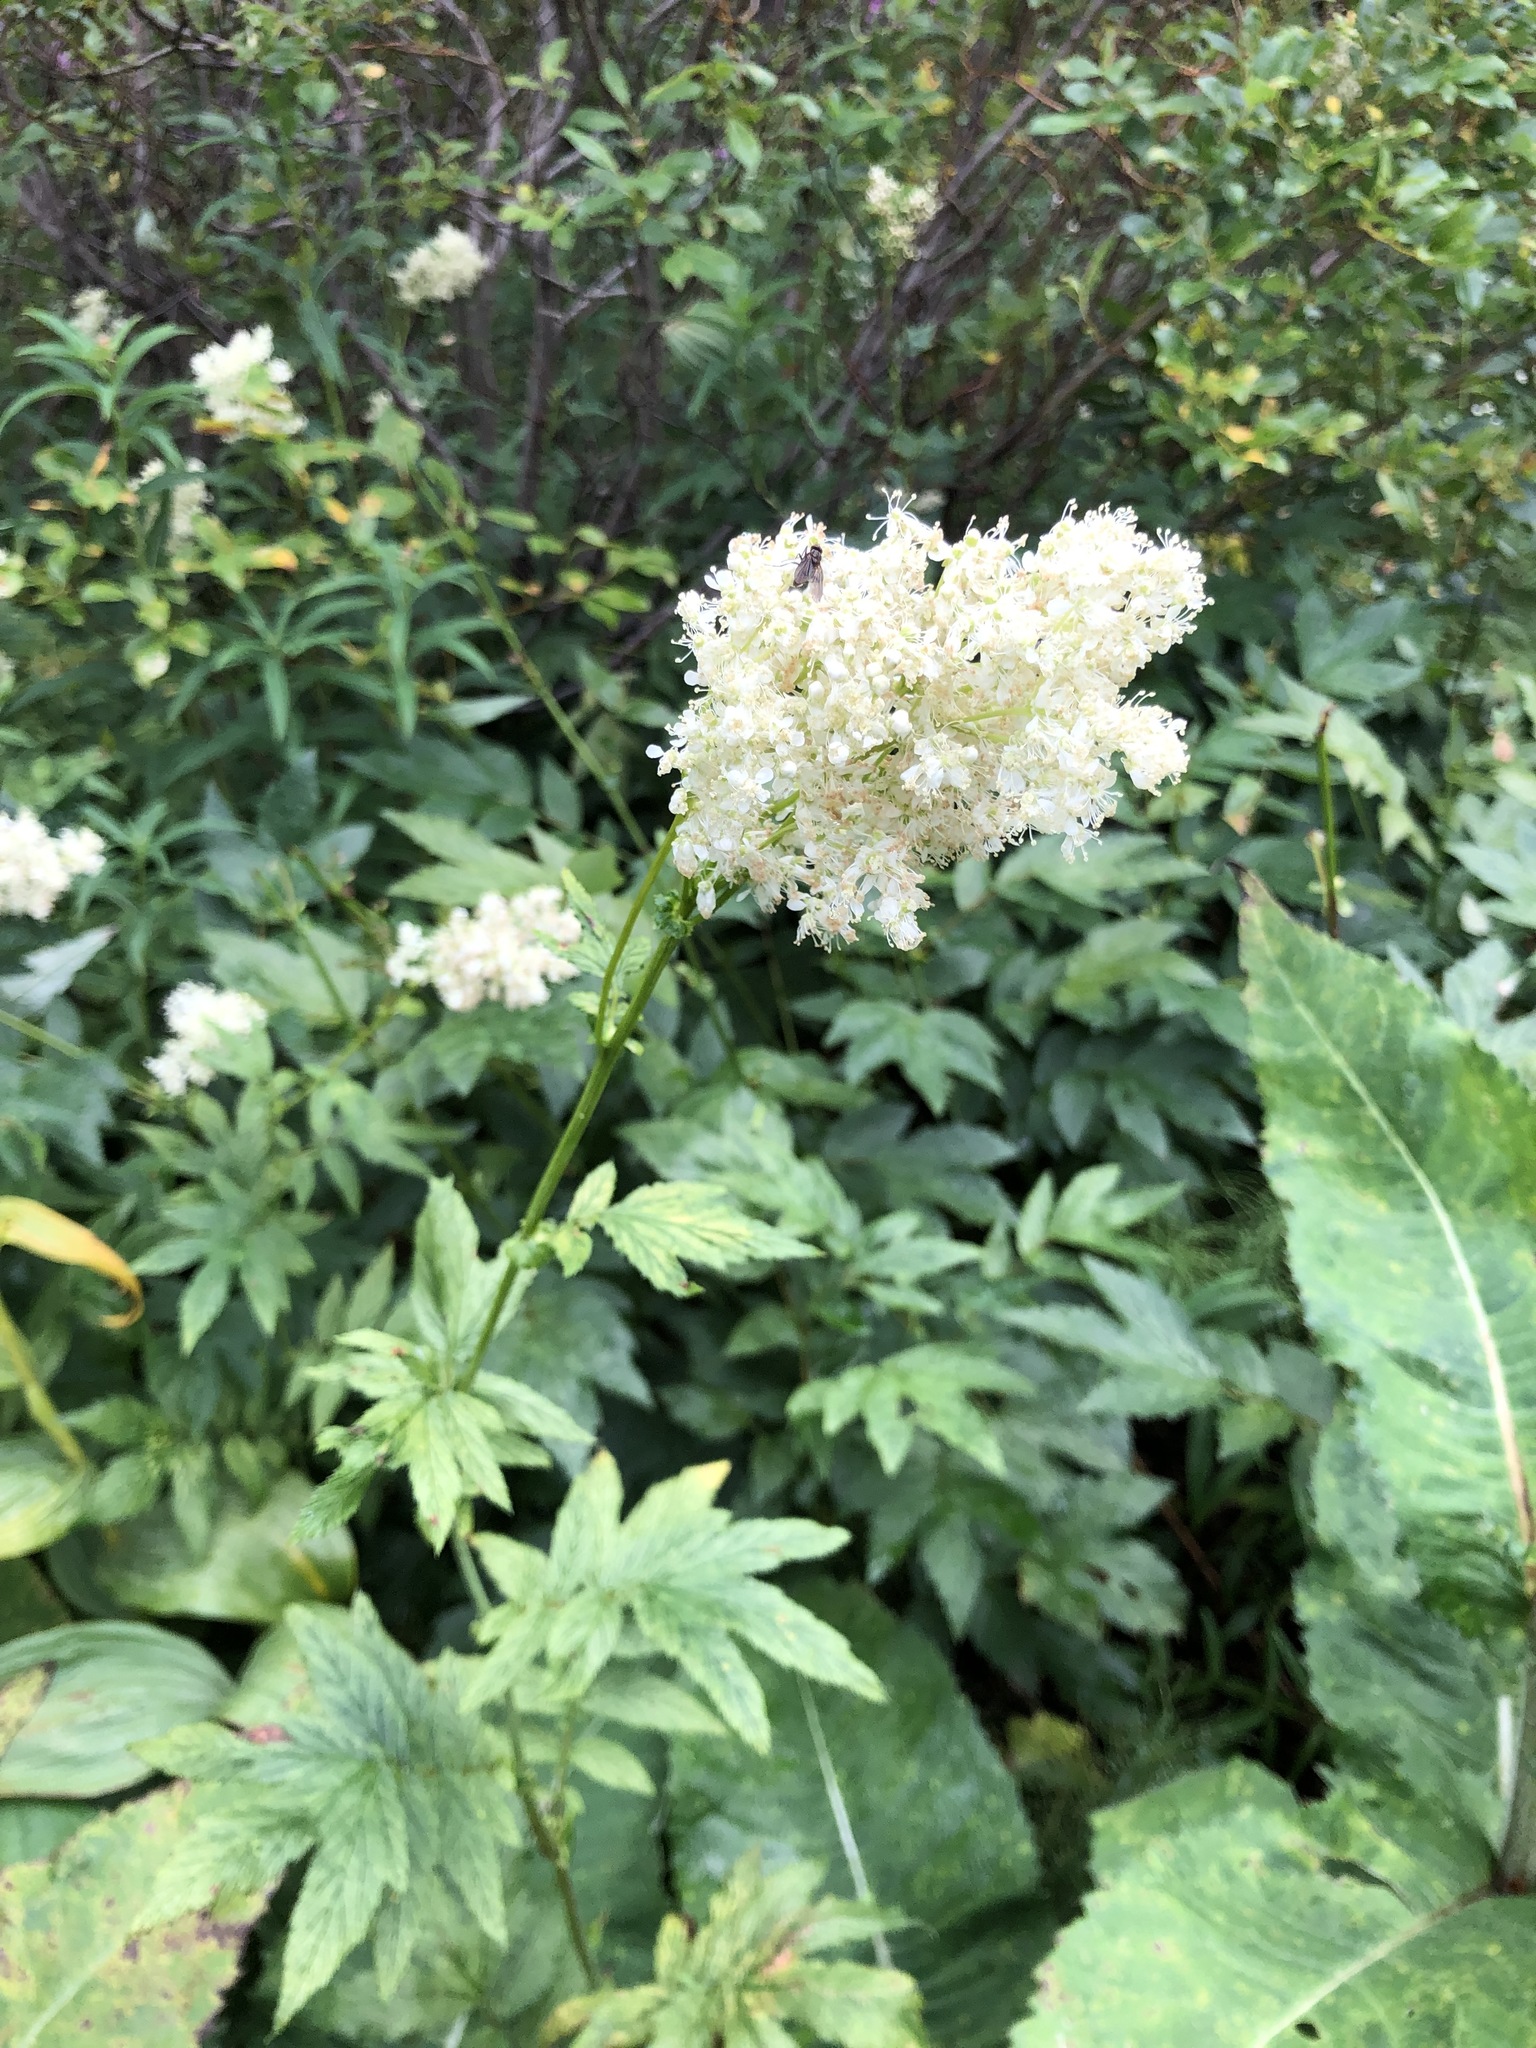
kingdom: Plantae
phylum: Tracheophyta
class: Magnoliopsida
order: Rosales
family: Rosaceae
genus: Filipendula
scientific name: Filipendula ulmaria
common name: Meadowsweet
